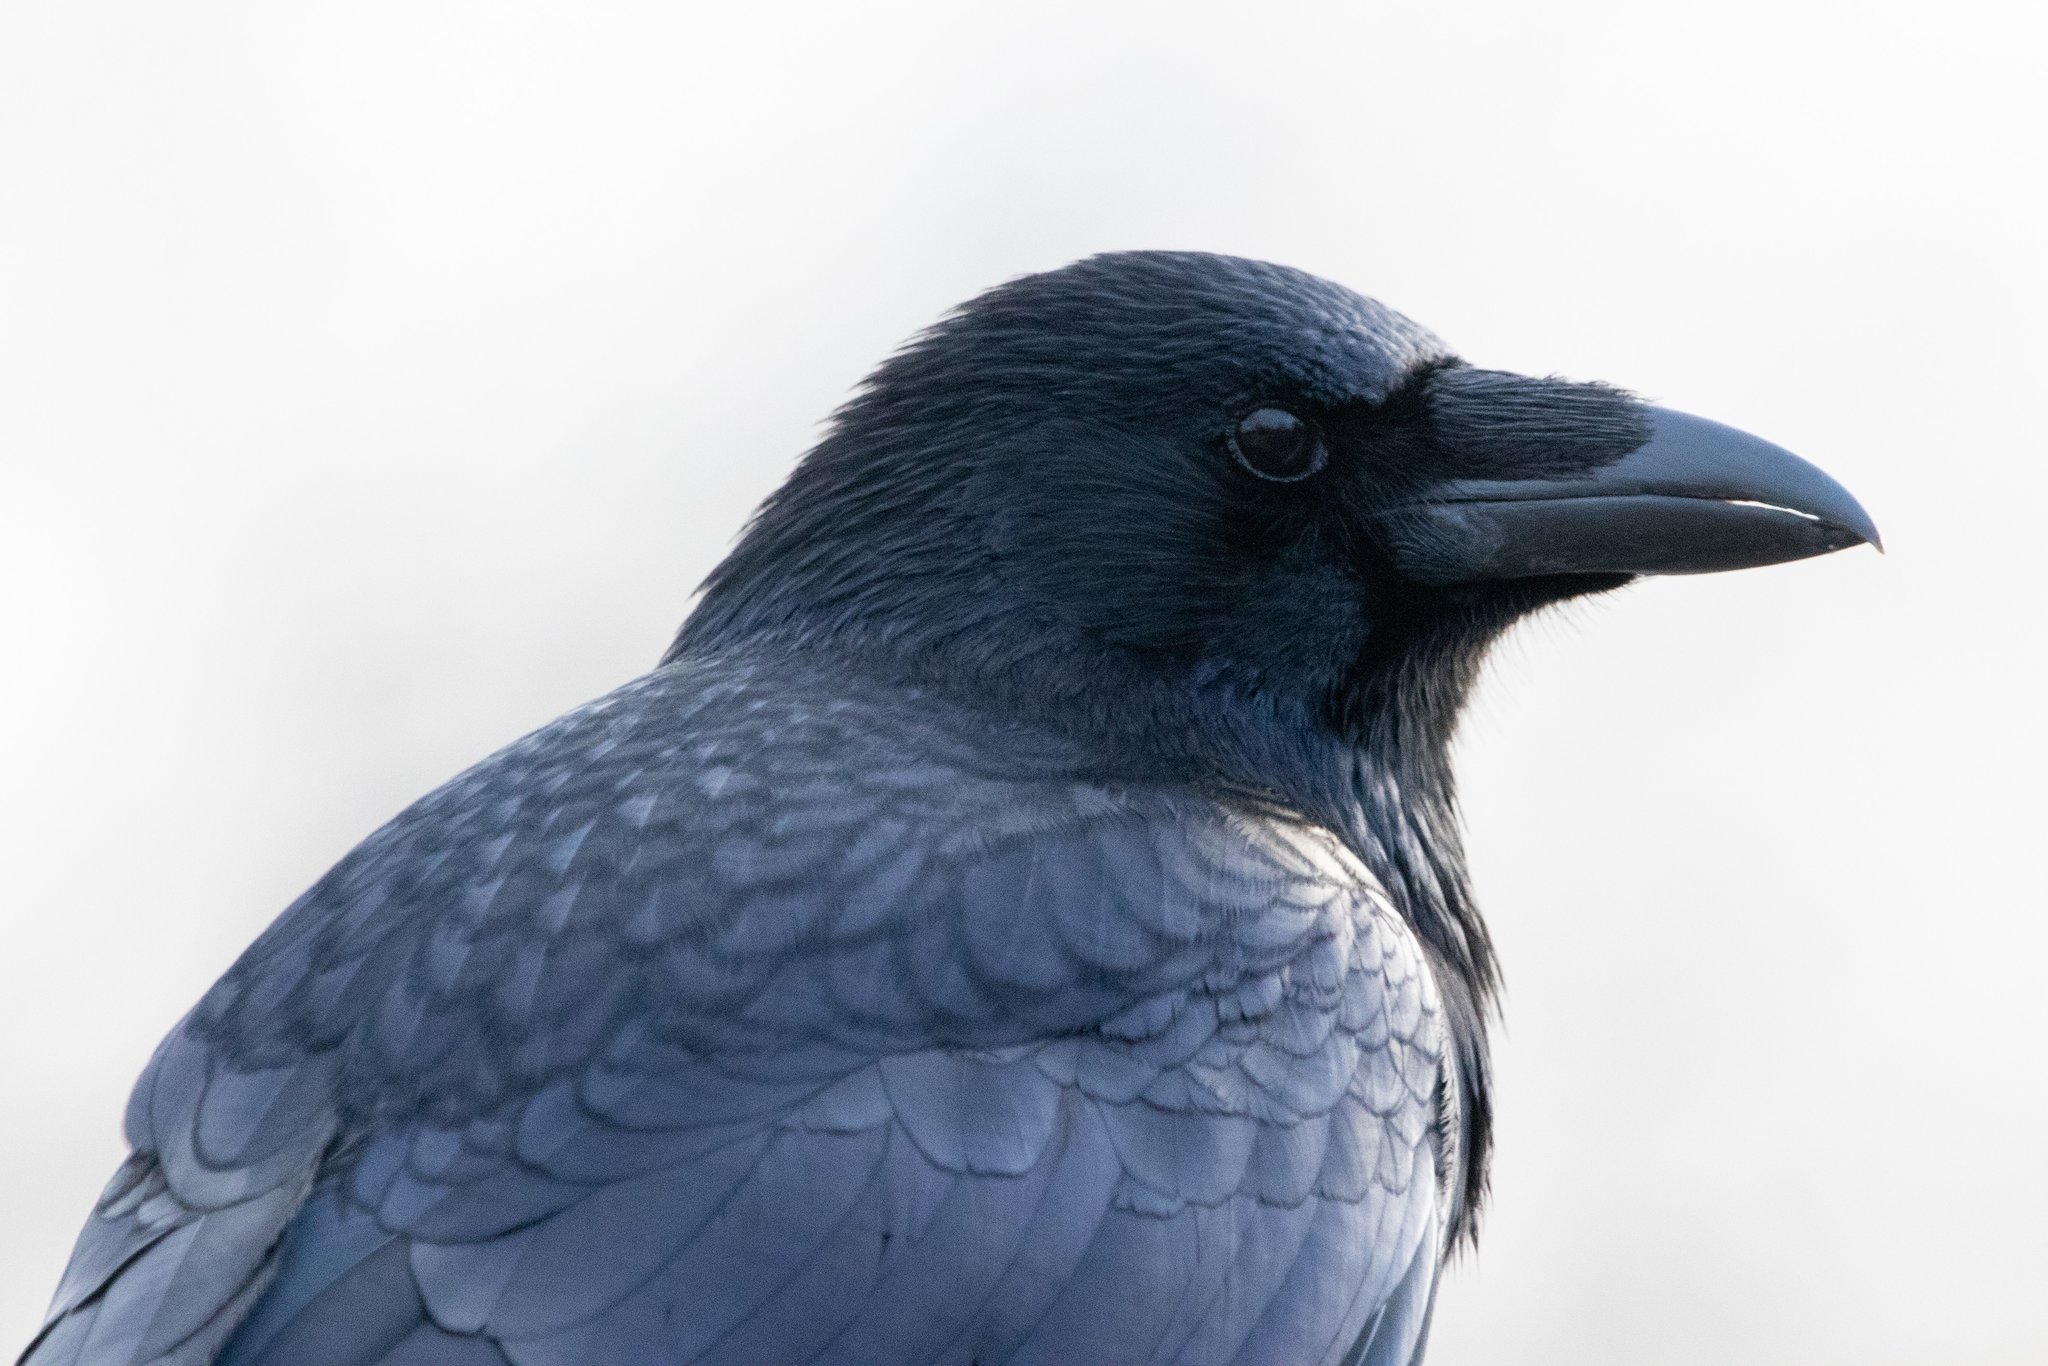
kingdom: Animalia
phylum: Chordata
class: Aves
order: Passeriformes
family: Corvidae
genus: Corvus
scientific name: Corvus corone
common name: Carrion crow
